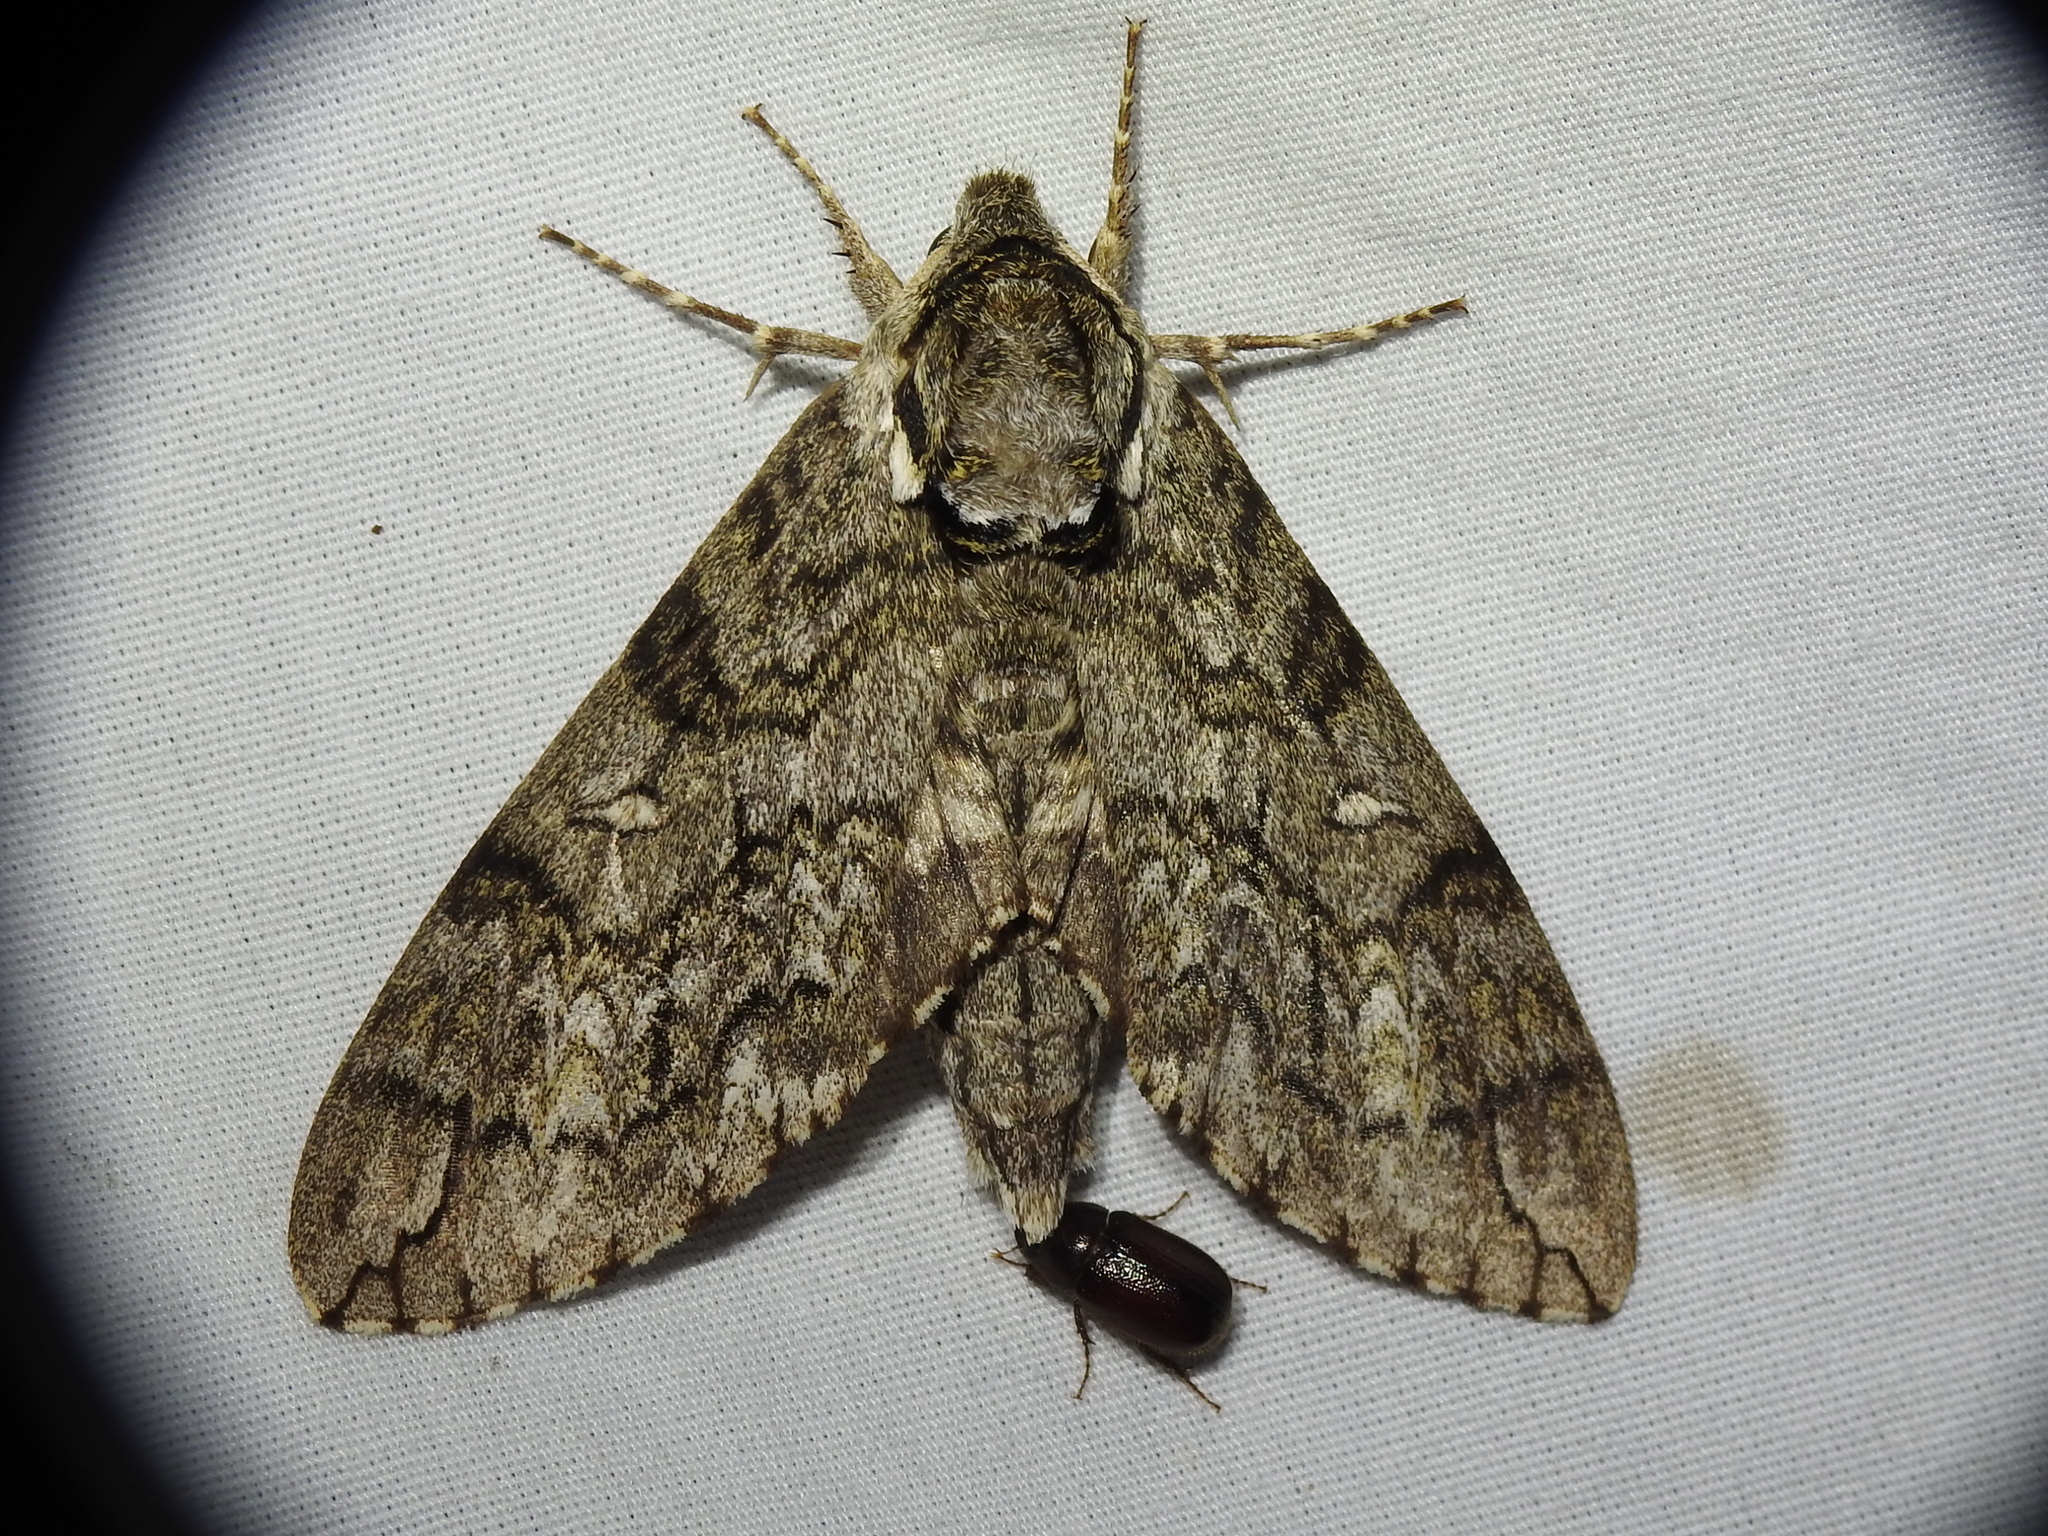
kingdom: Animalia
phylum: Arthropoda
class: Insecta
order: Lepidoptera
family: Sphingidae
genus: Ceratomia
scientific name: Ceratomia undulosa
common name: Waved sphinx
